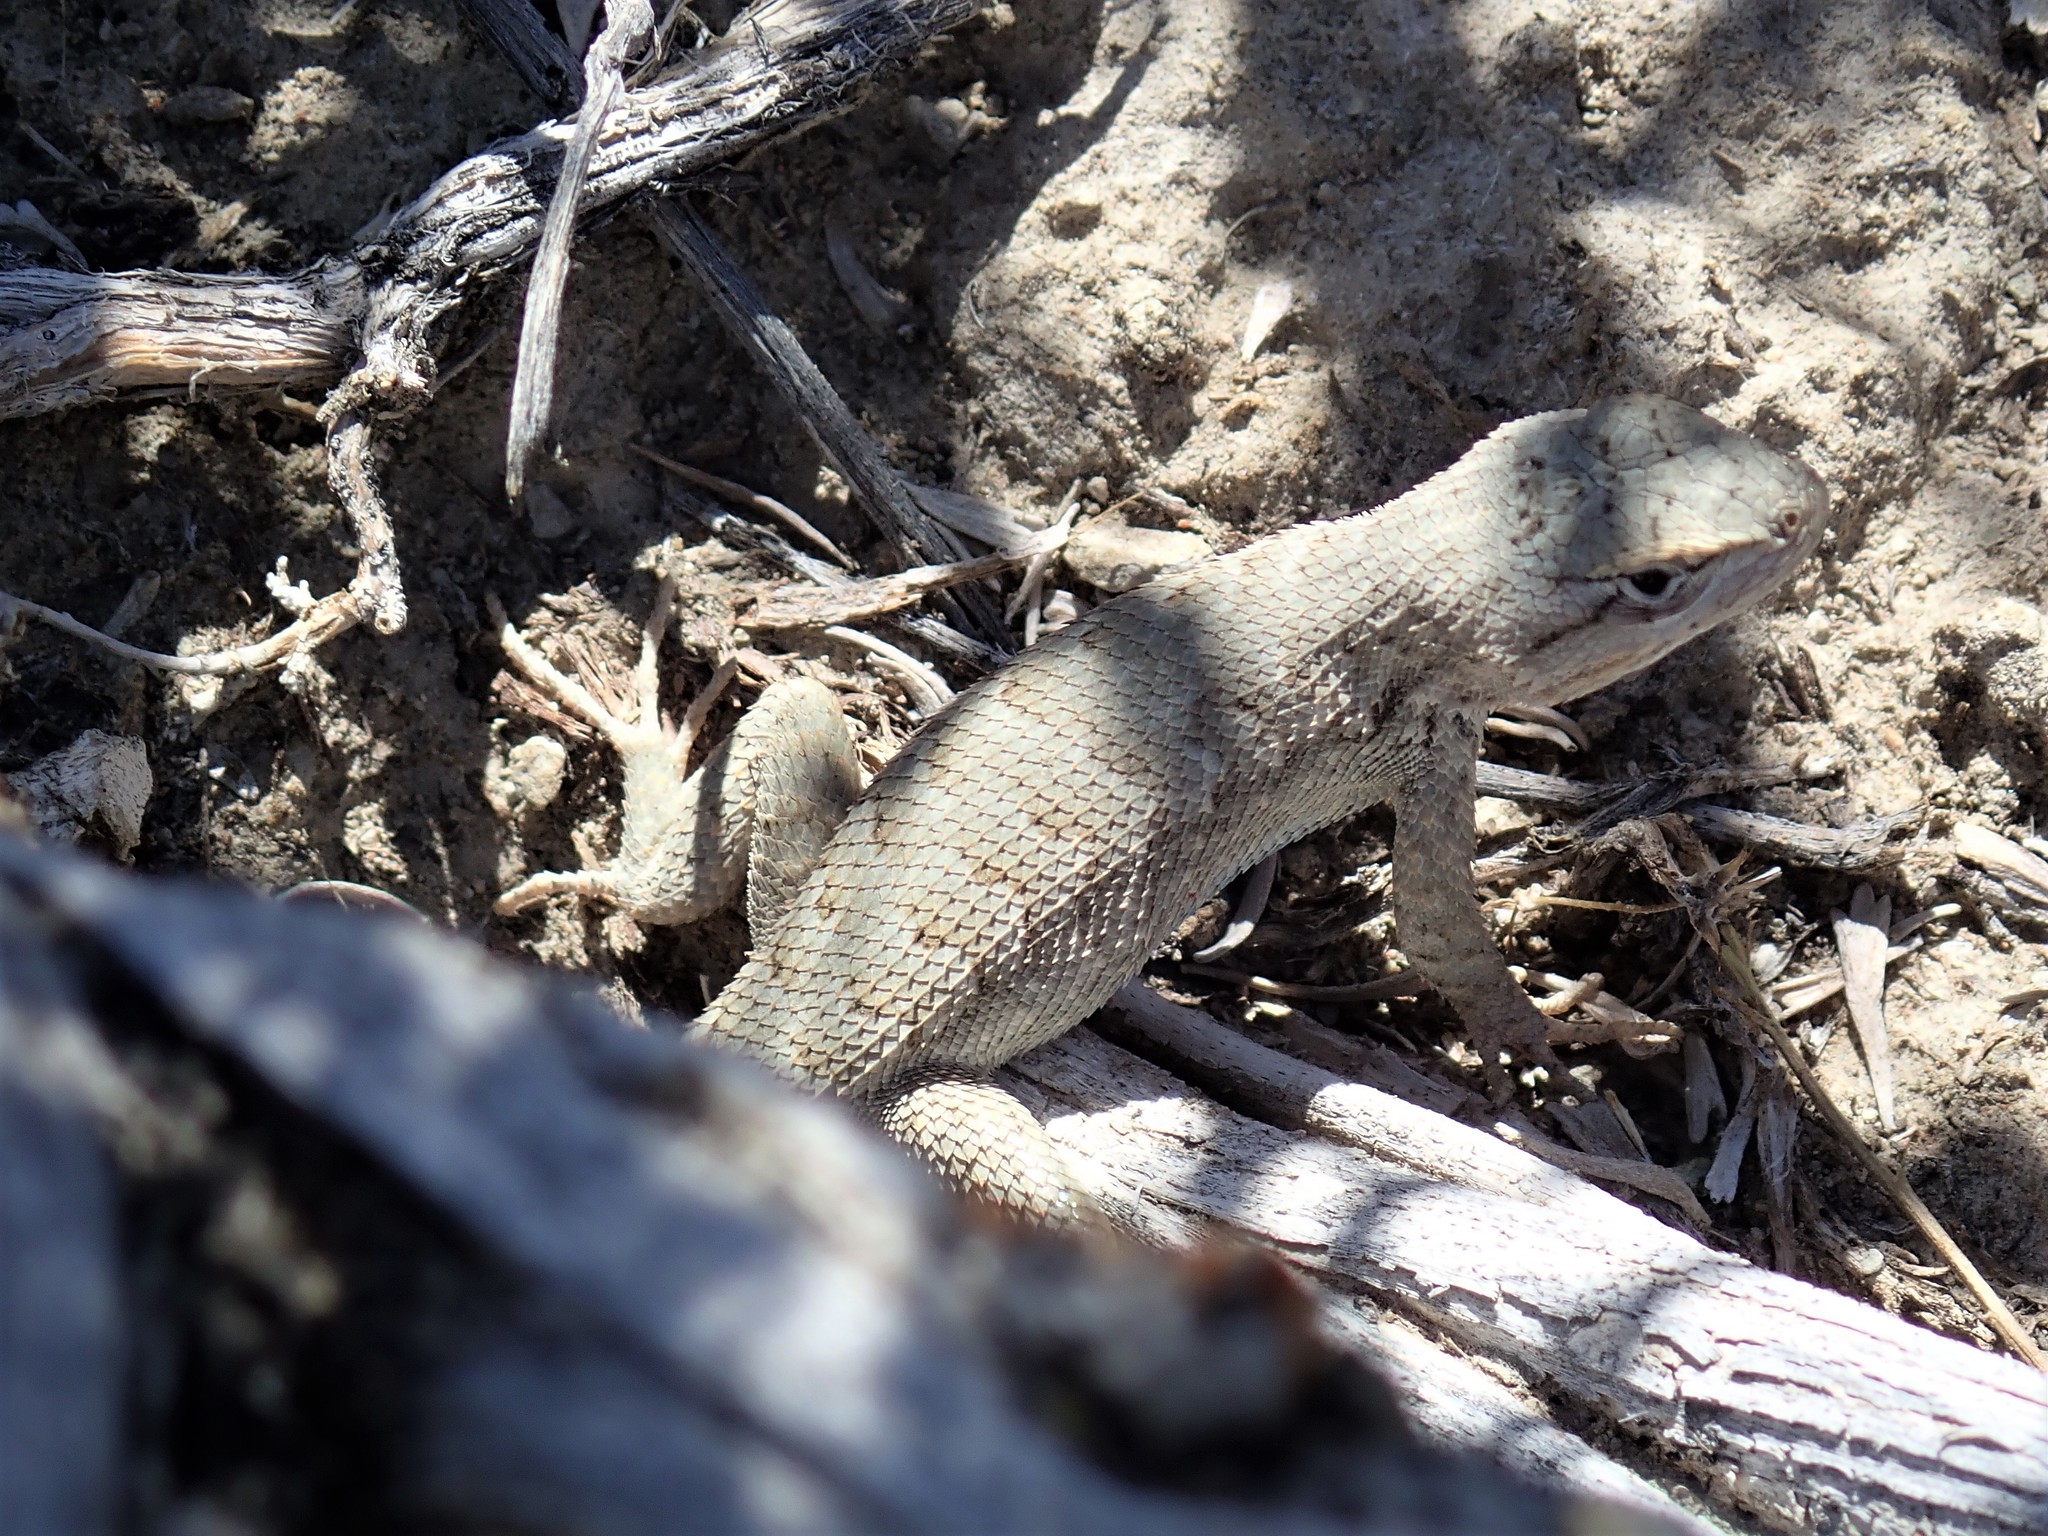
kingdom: Animalia
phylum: Chordata
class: Squamata
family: Phrynosomatidae
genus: Sceloporus
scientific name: Sceloporus tristichus
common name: Plateau fence lizard
